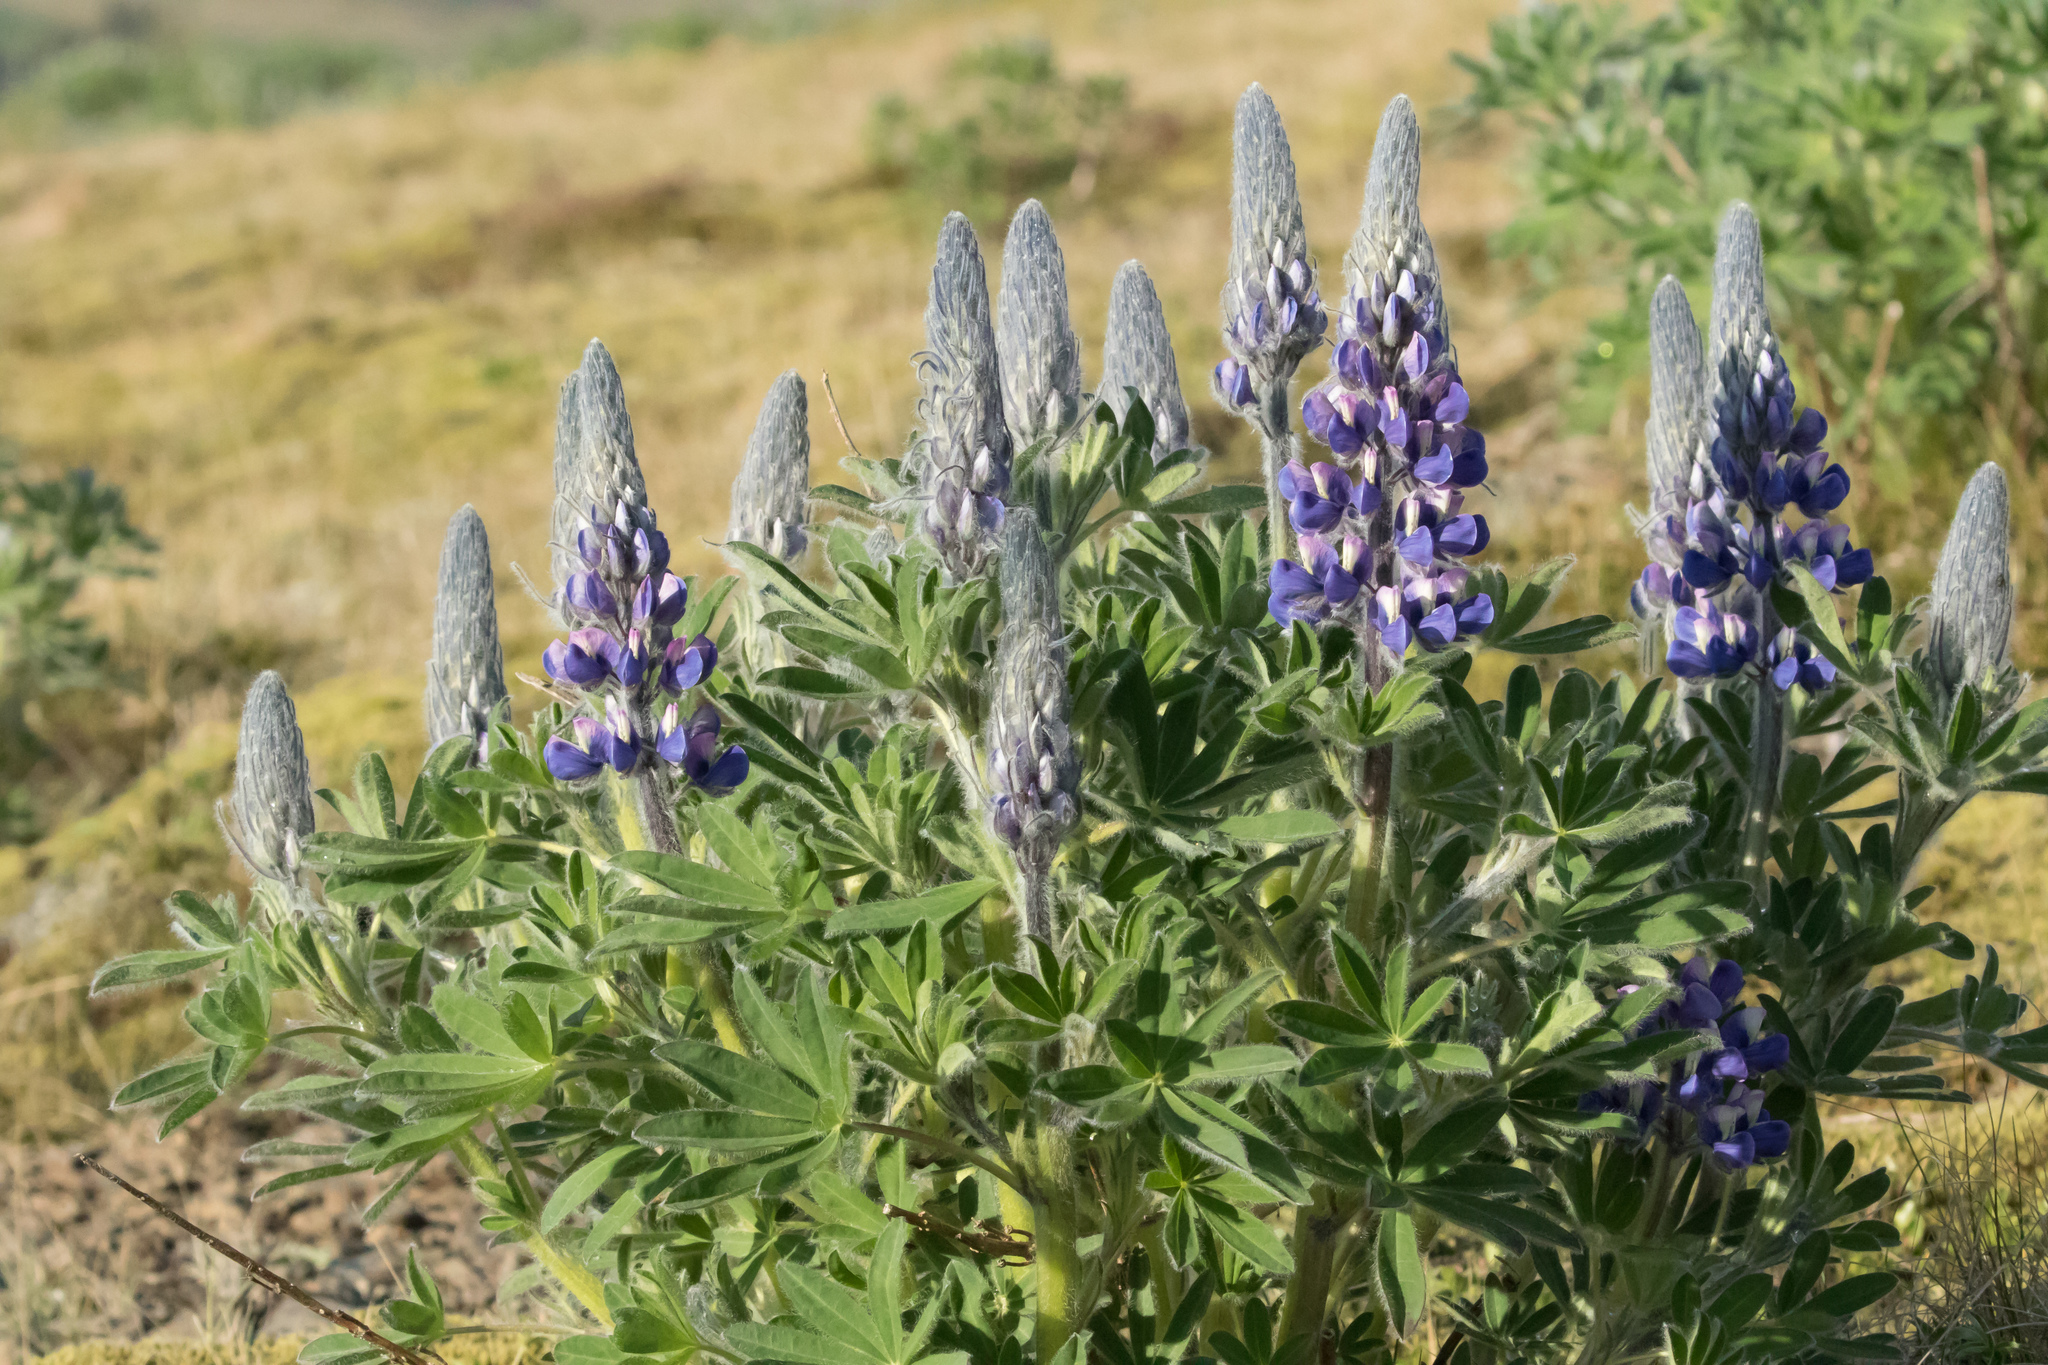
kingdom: Plantae
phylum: Tracheophyta
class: Magnoliopsida
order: Fabales
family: Fabaceae
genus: Lupinus
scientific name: Lupinus nootkatensis
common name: Nootka lupine
